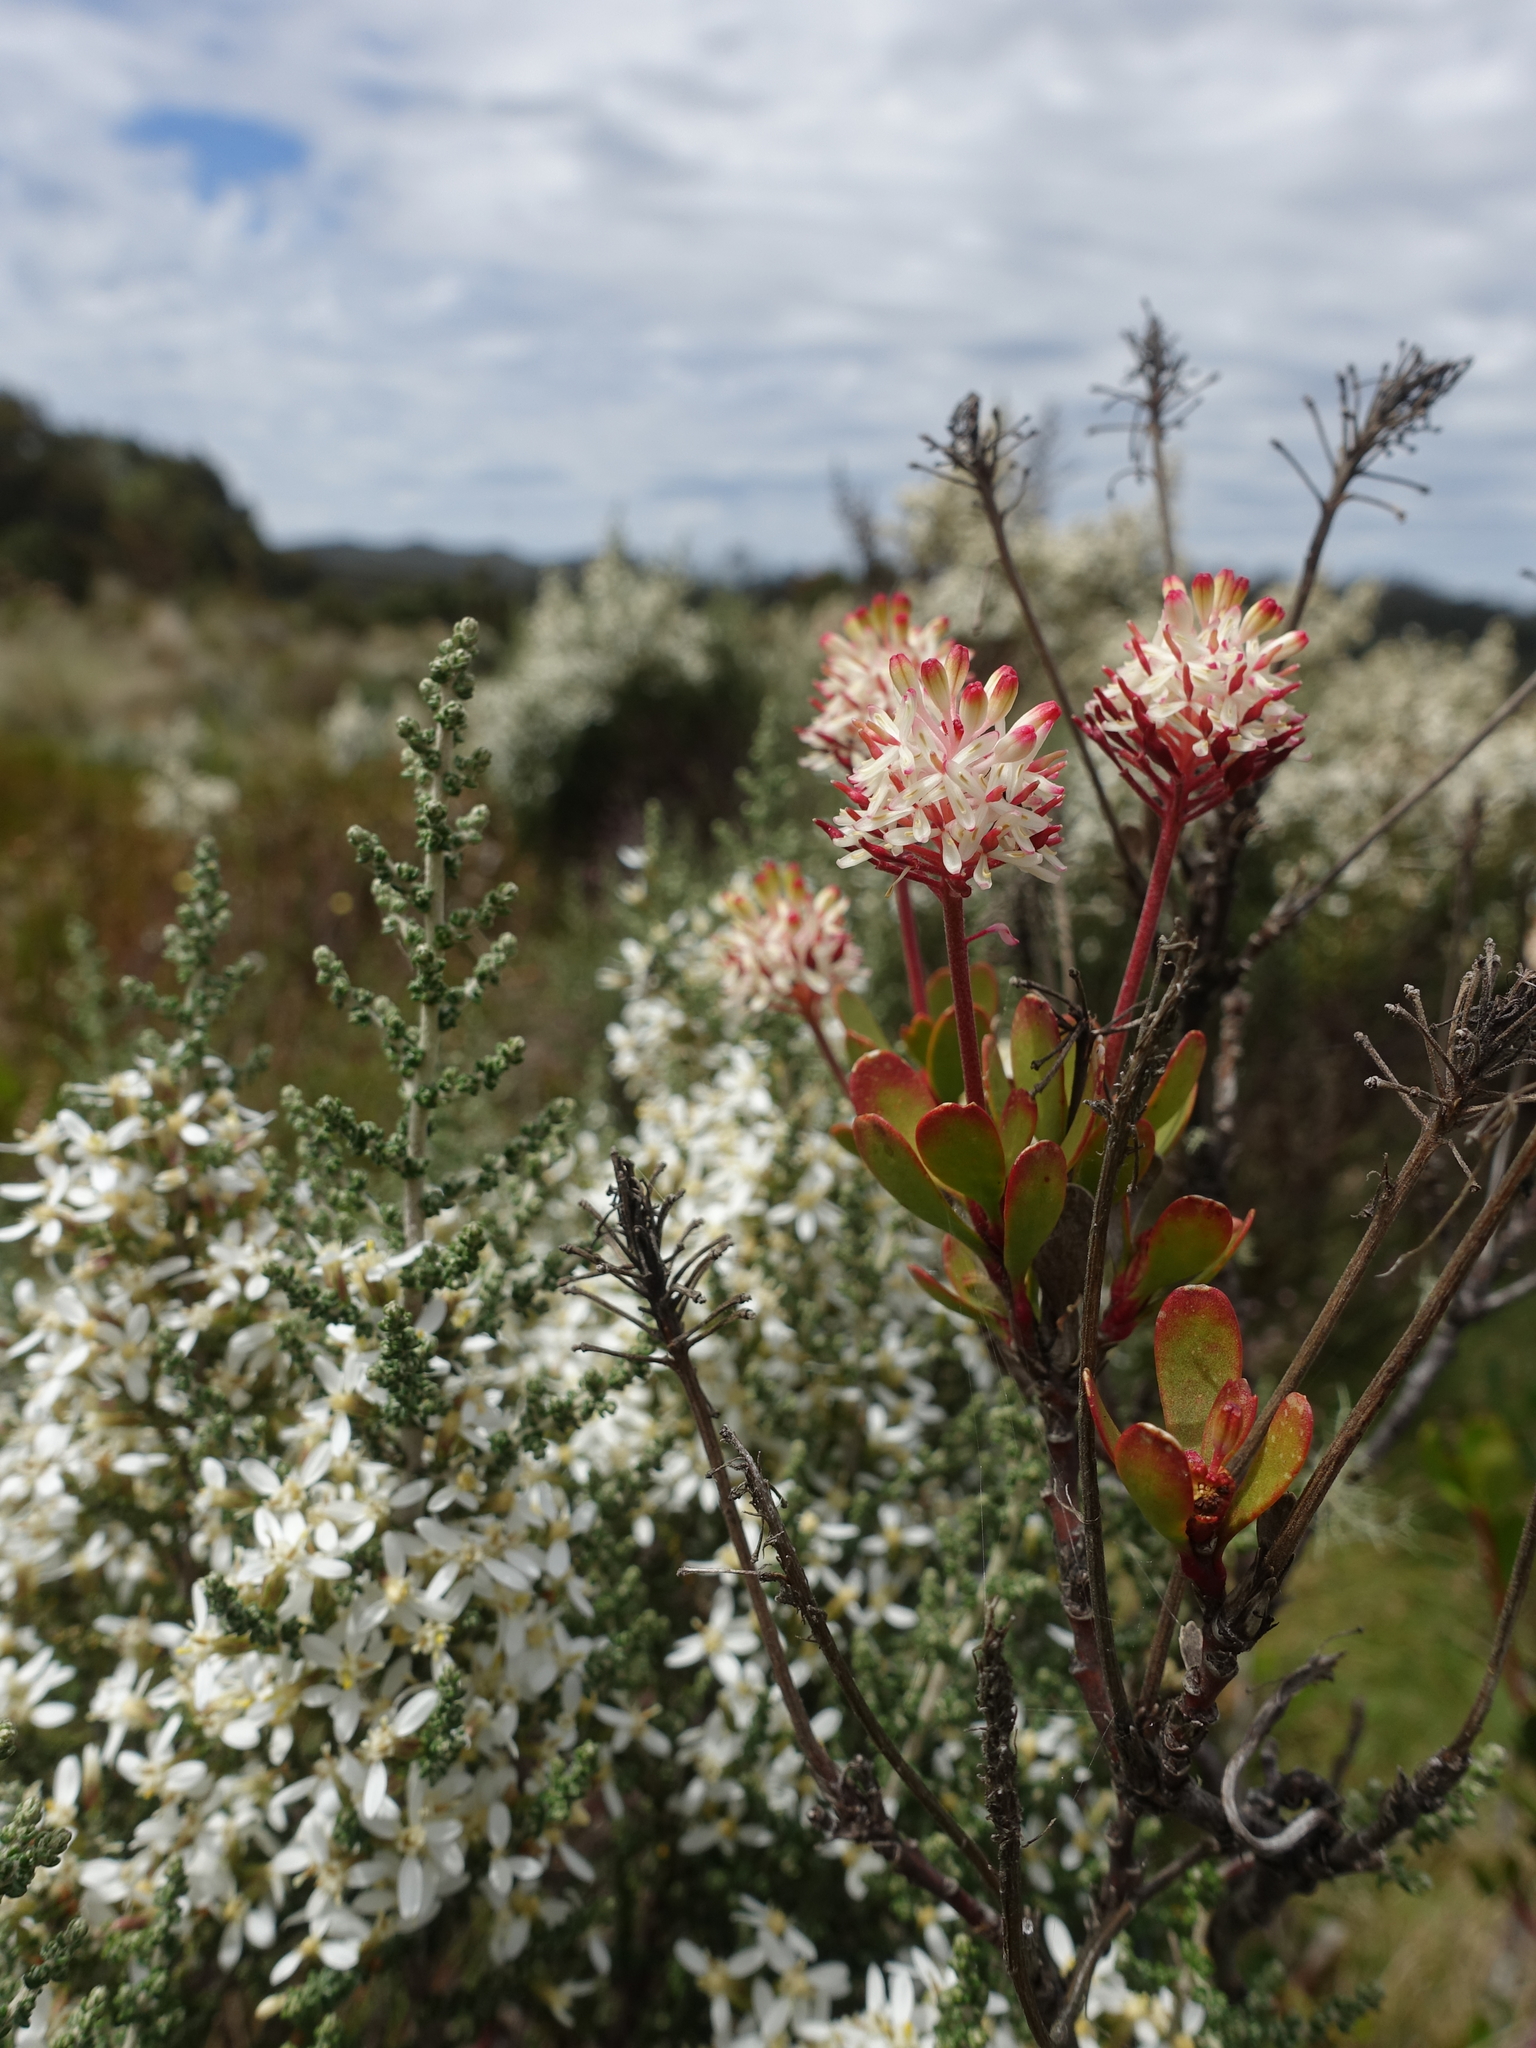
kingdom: Plantae
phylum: Tracheophyta
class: Magnoliopsida
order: Proteales
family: Proteaceae
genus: Bellendena
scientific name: Bellendena montana
